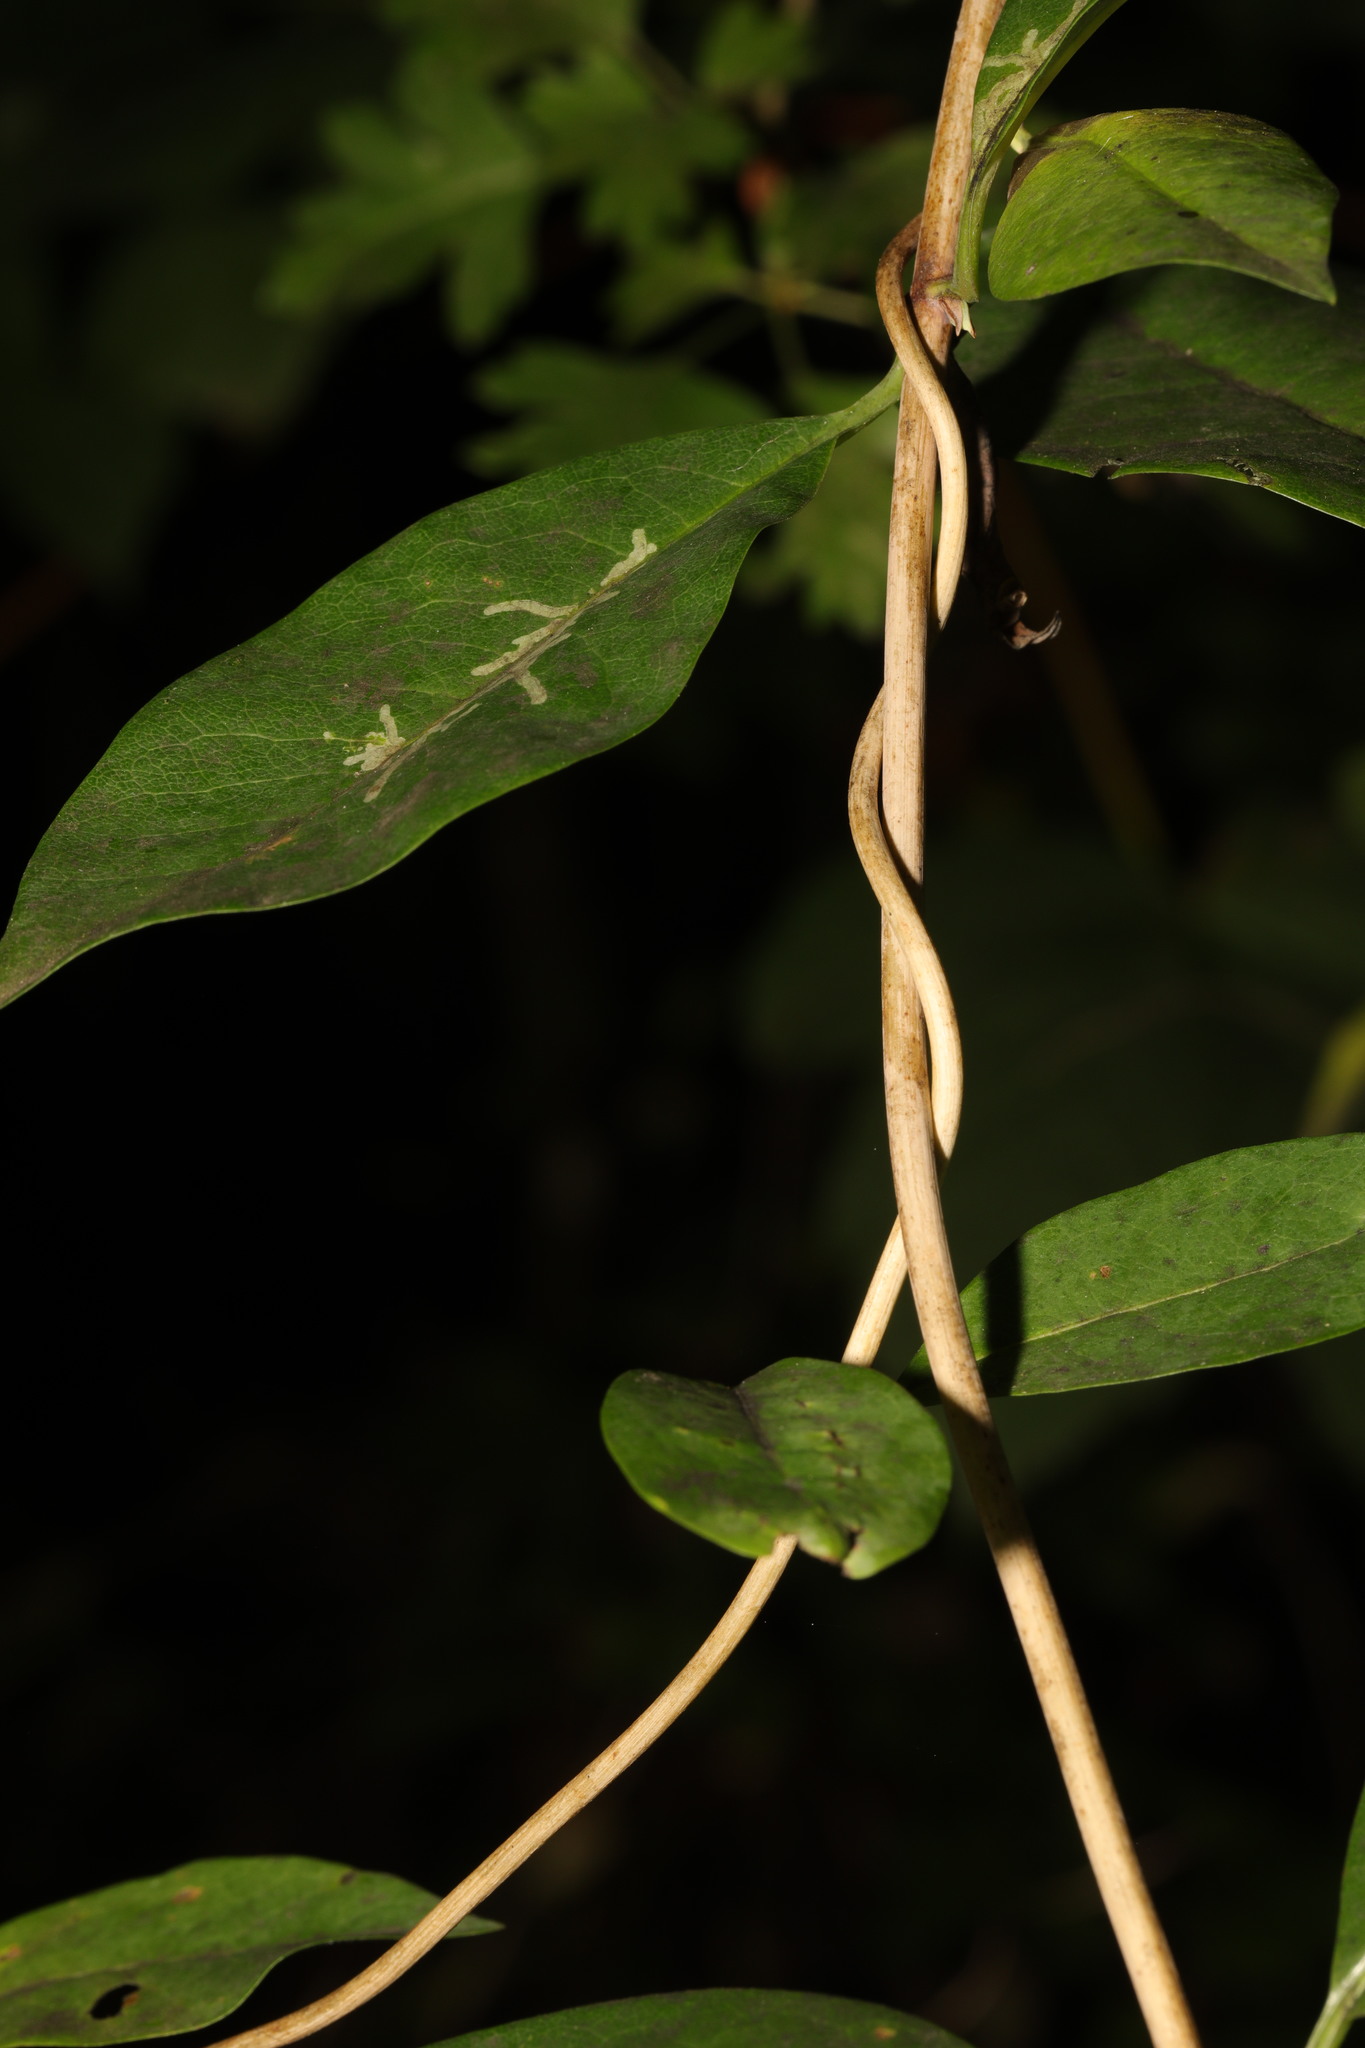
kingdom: Plantae
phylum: Tracheophyta
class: Magnoliopsida
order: Dipsacales
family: Caprifoliaceae
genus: Lonicera
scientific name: Lonicera japonica
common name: Japanese honeysuckle
